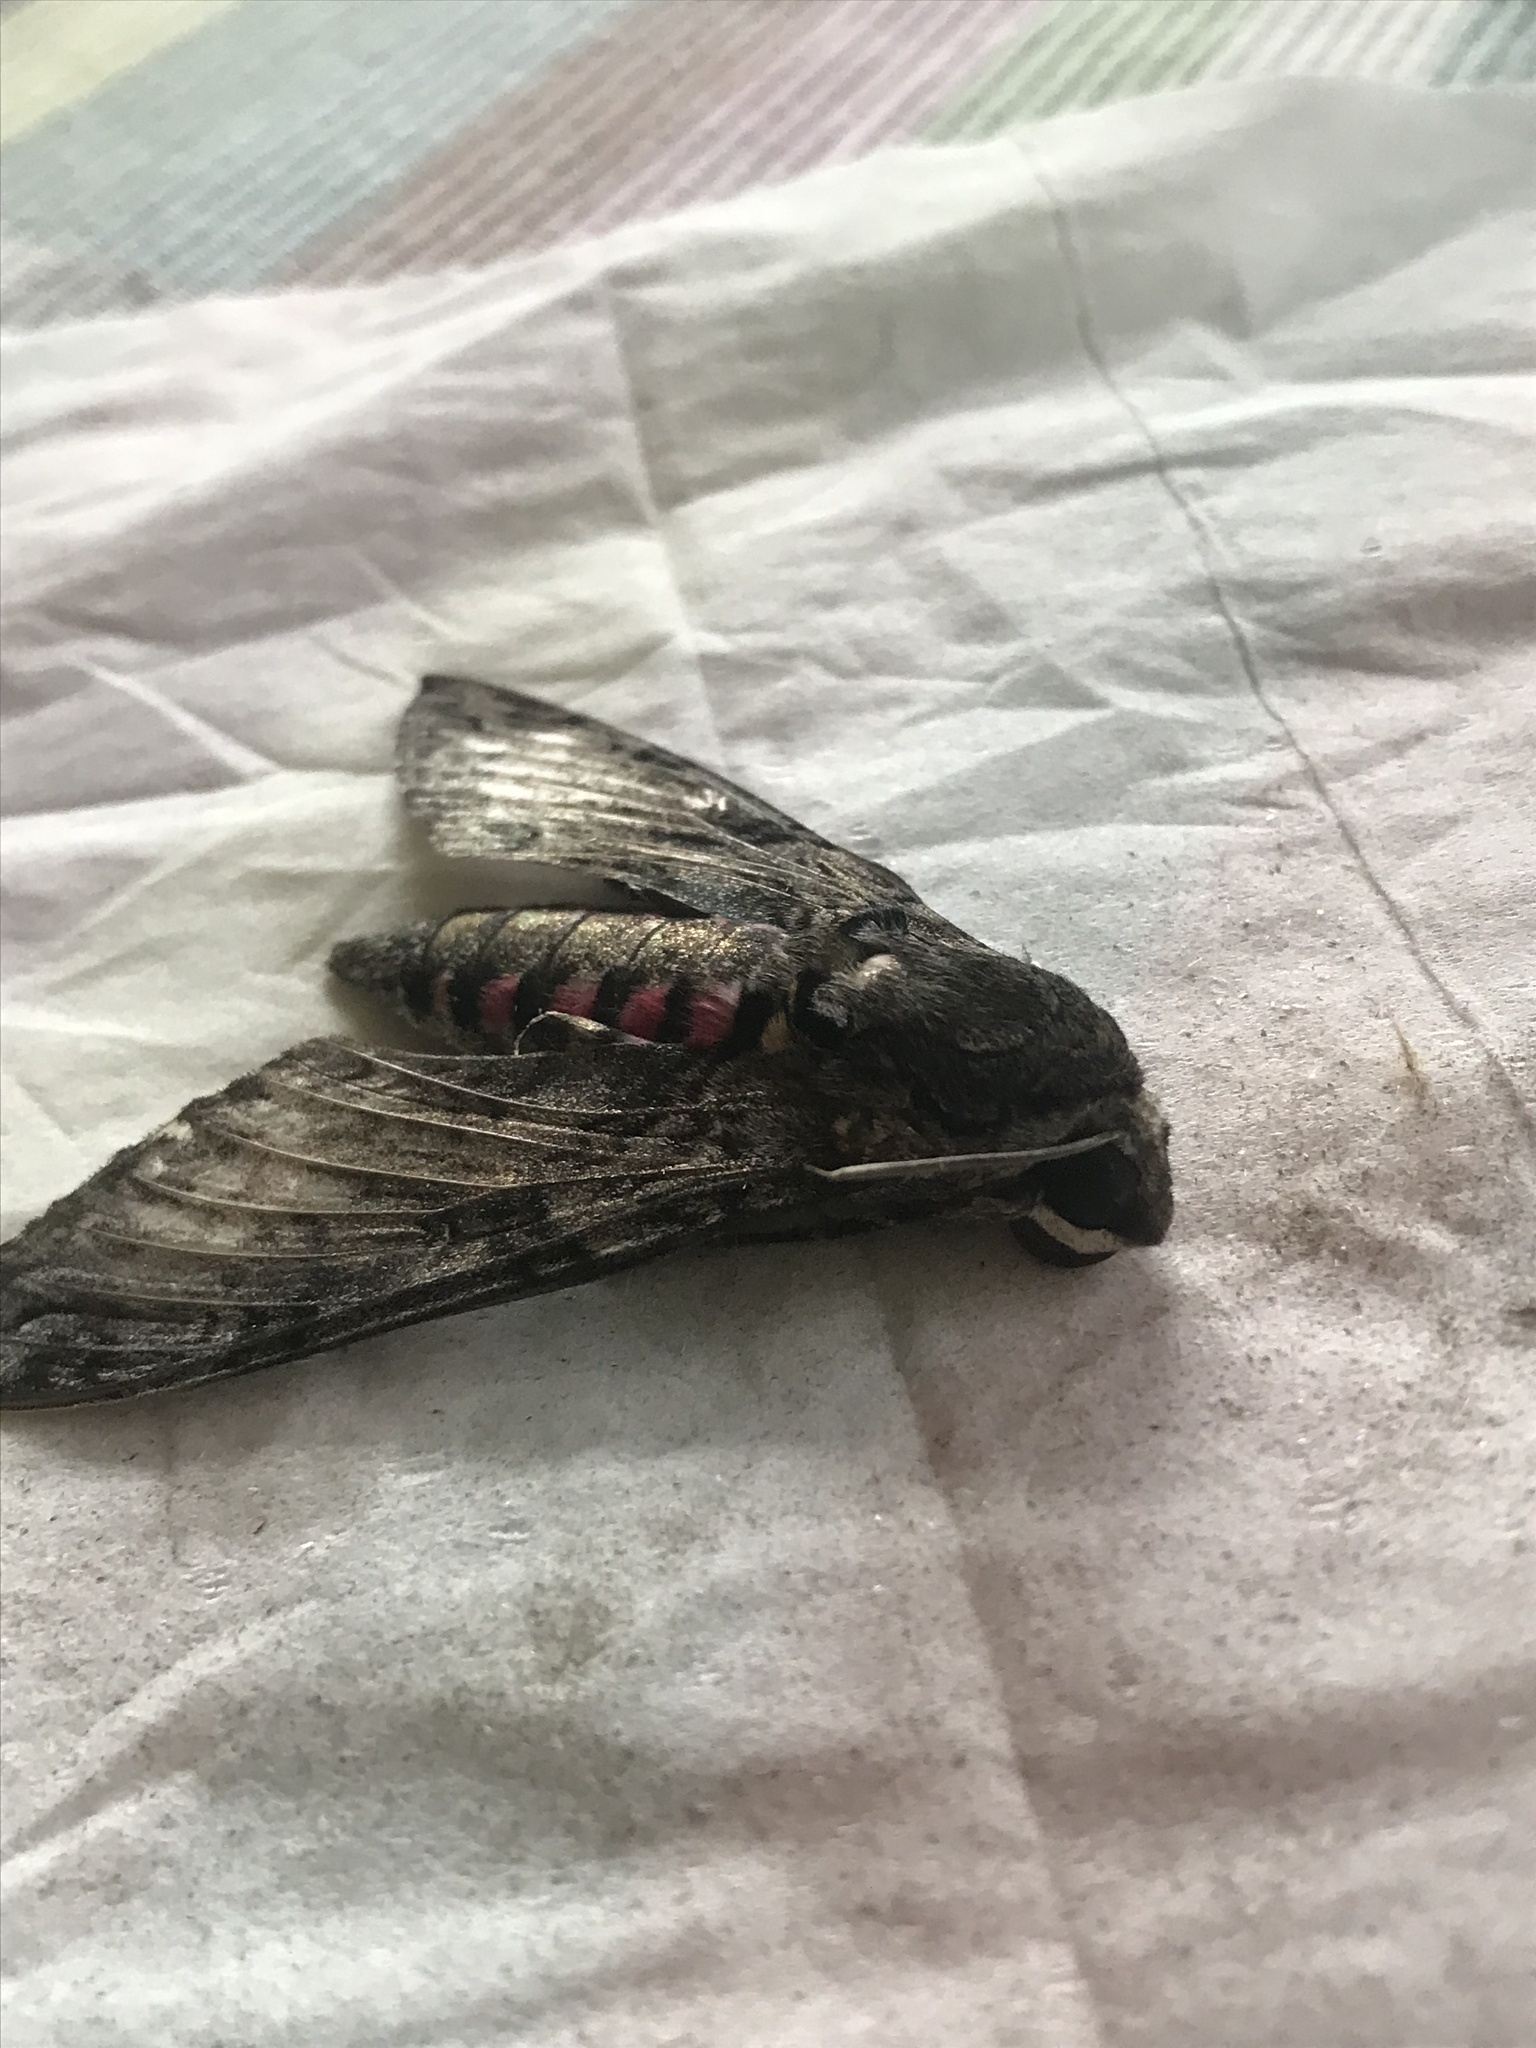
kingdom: Animalia
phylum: Arthropoda
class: Insecta
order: Lepidoptera
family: Sphingidae
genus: Agrius
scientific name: Agrius cingulata
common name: Pink-spotted hawkmoth
